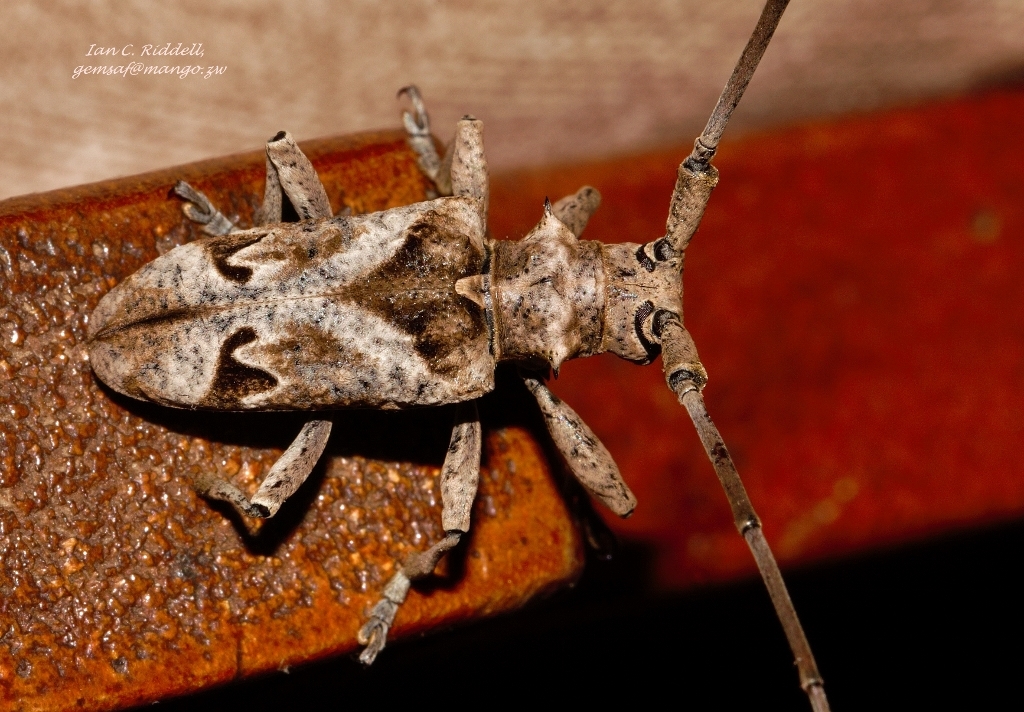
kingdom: Animalia
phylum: Arthropoda
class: Insecta
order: Coleoptera
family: Cerambycidae
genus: Monochamus
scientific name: Monochamus spectabilis
